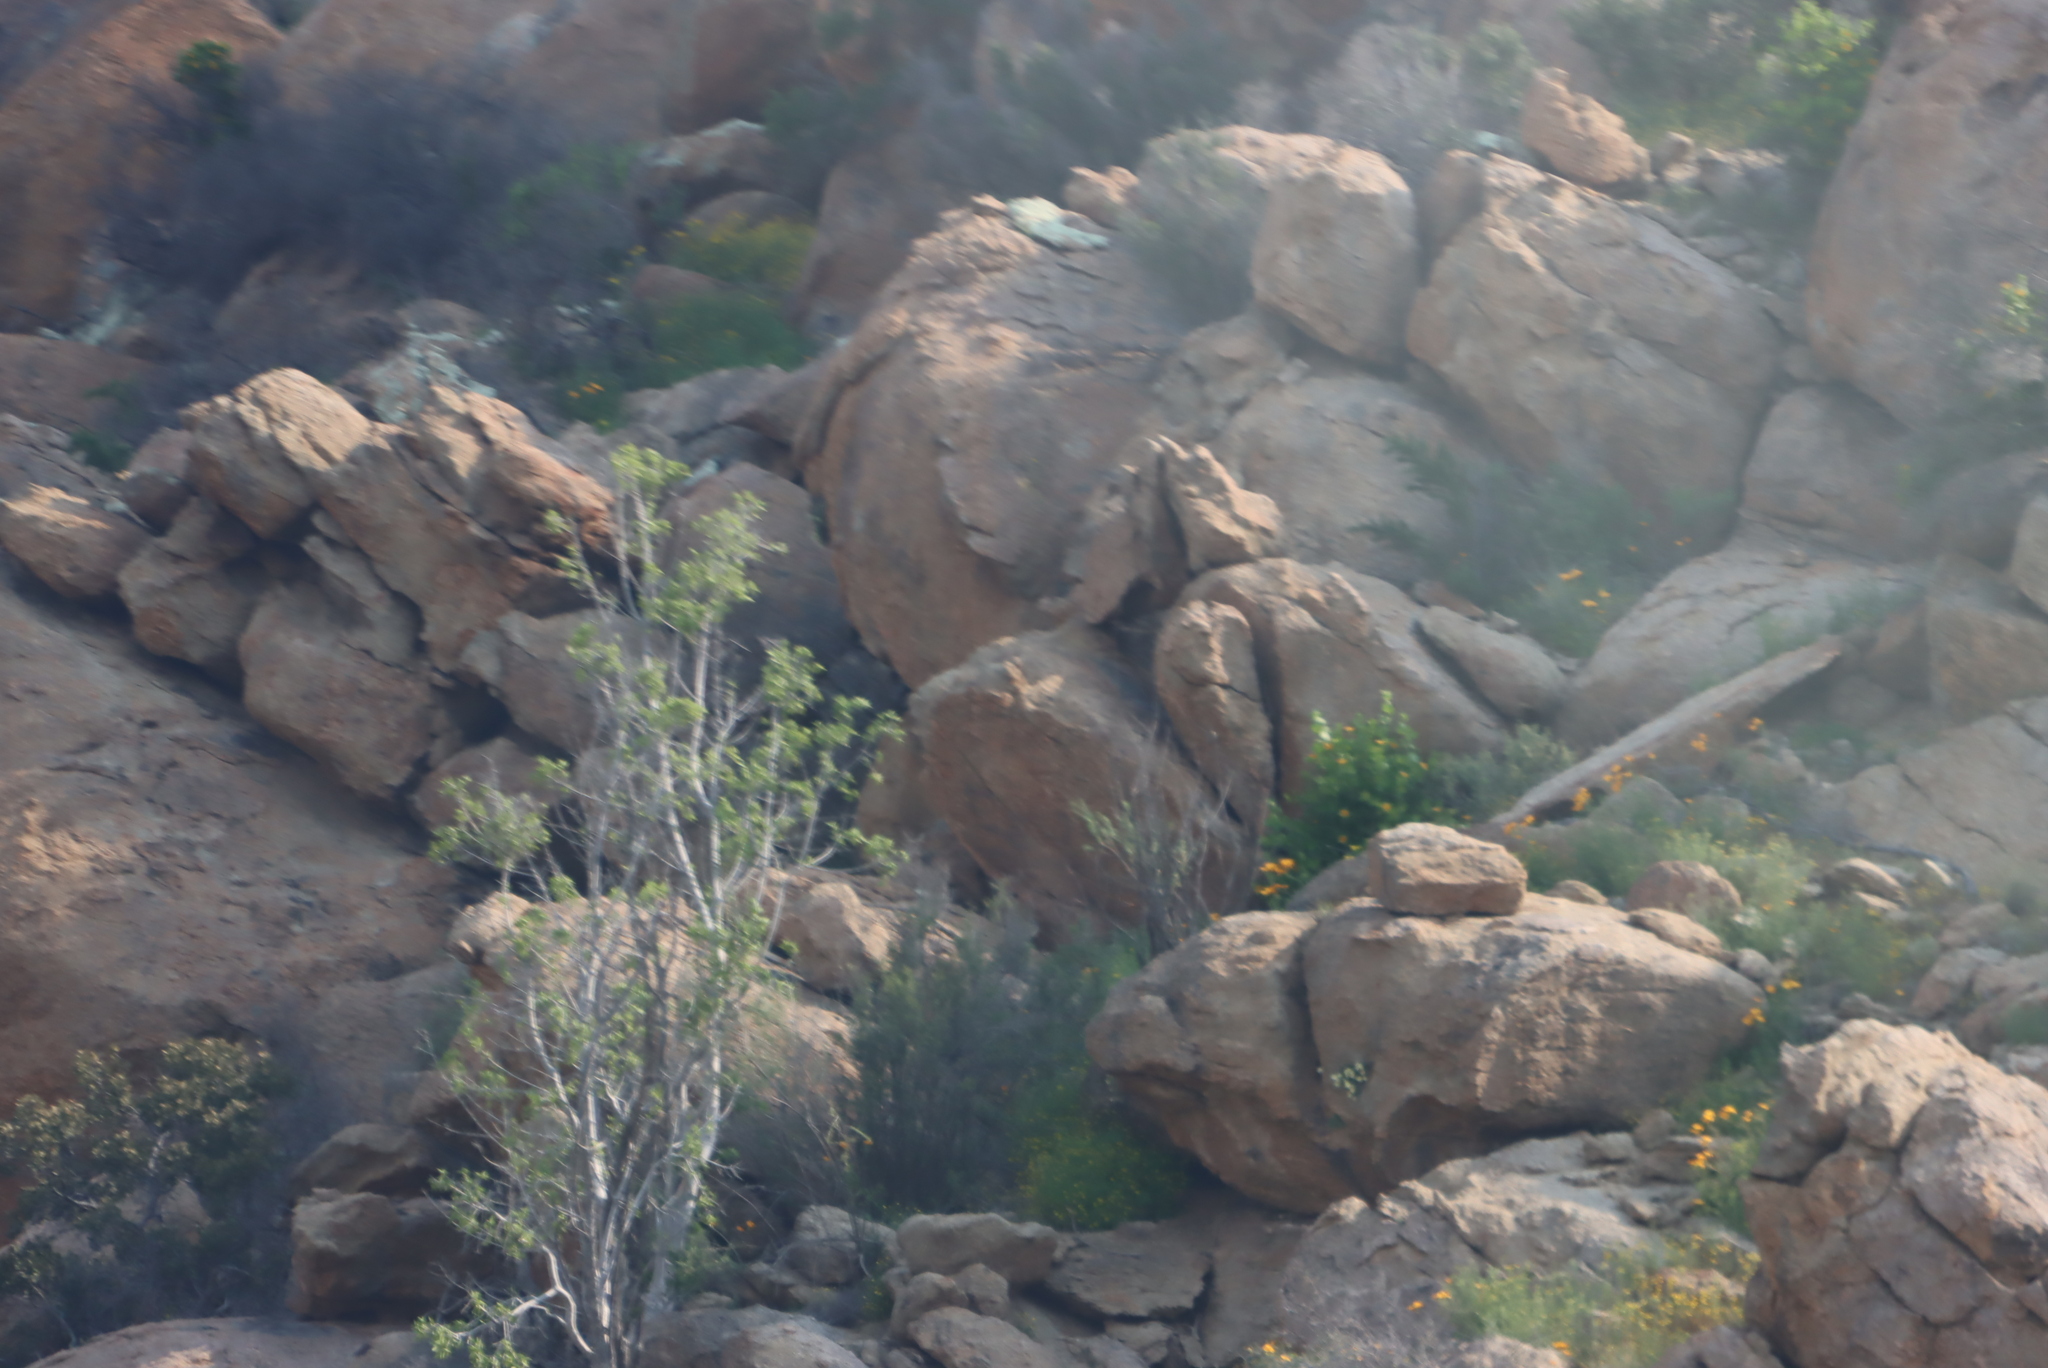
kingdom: Plantae
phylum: Tracheophyta
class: Magnoliopsida
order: Rosales
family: Moraceae
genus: Ficus
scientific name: Ficus cordata
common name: Namaqua rock fig
